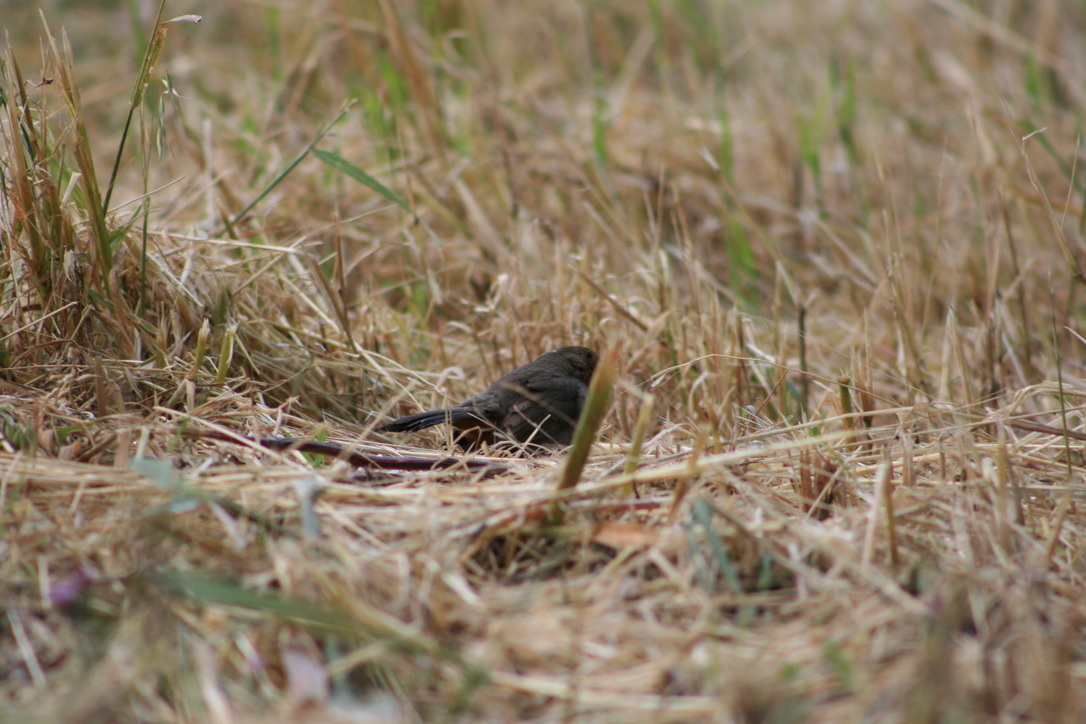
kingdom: Animalia
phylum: Chordata
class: Aves
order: Passeriformes
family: Passerellidae
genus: Melozone
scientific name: Melozone crissalis
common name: California towhee
